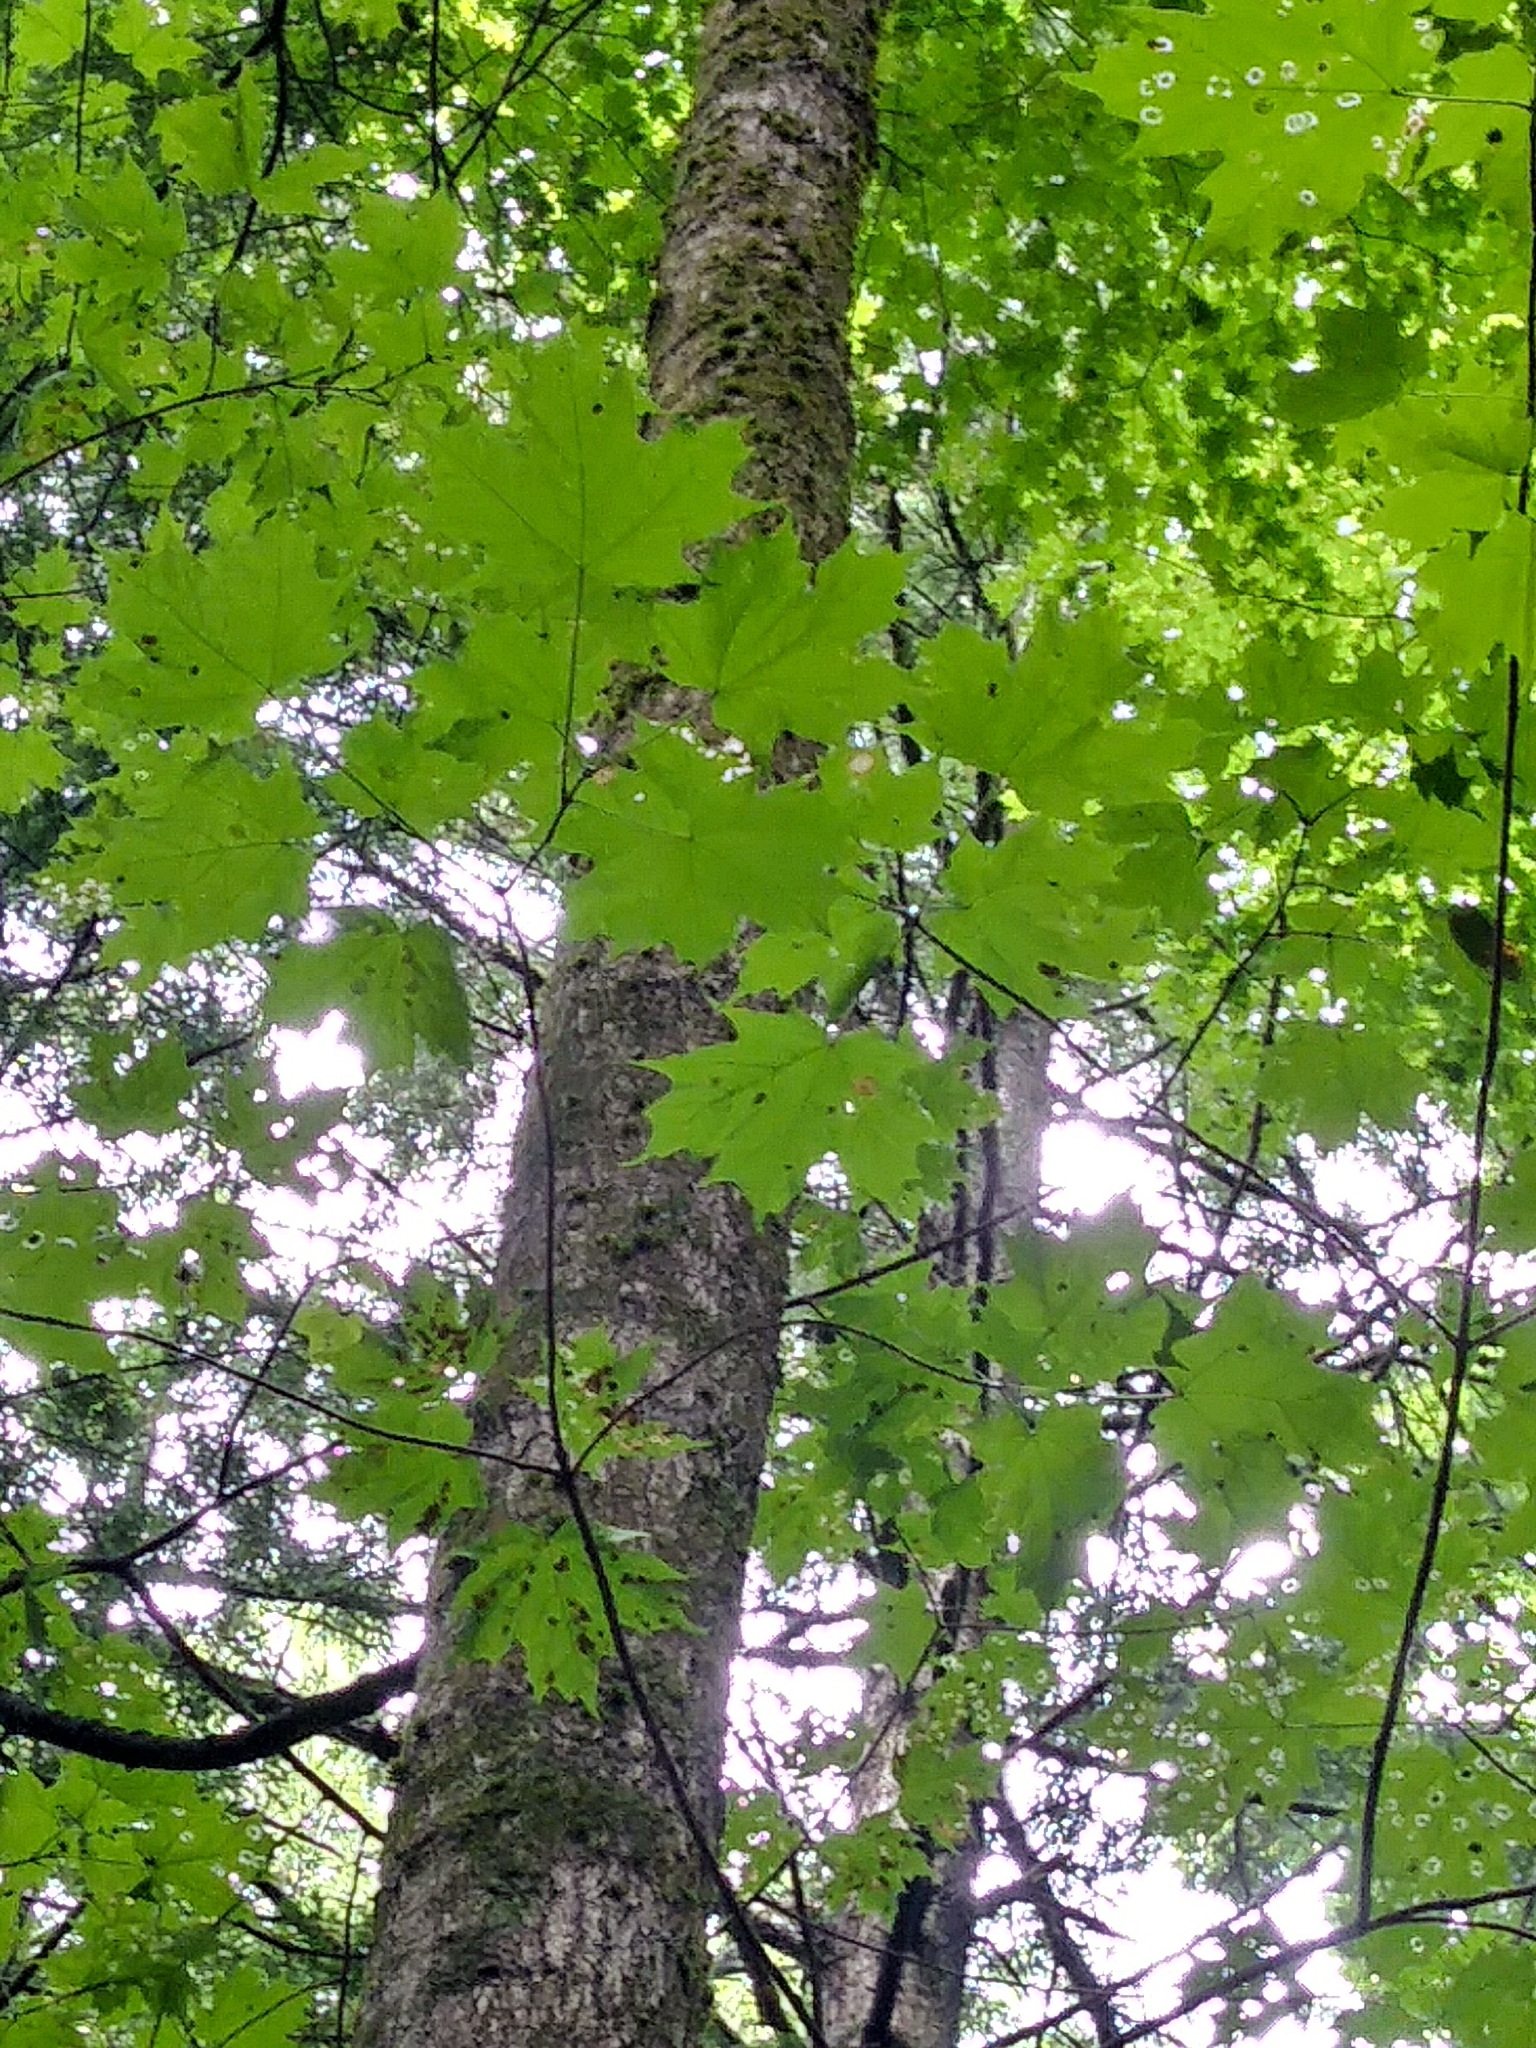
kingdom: Plantae
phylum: Tracheophyta
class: Magnoliopsida
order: Sapindales
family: Sapindaceae
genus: Acer
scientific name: Acer saccharum
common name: Sugar maple
